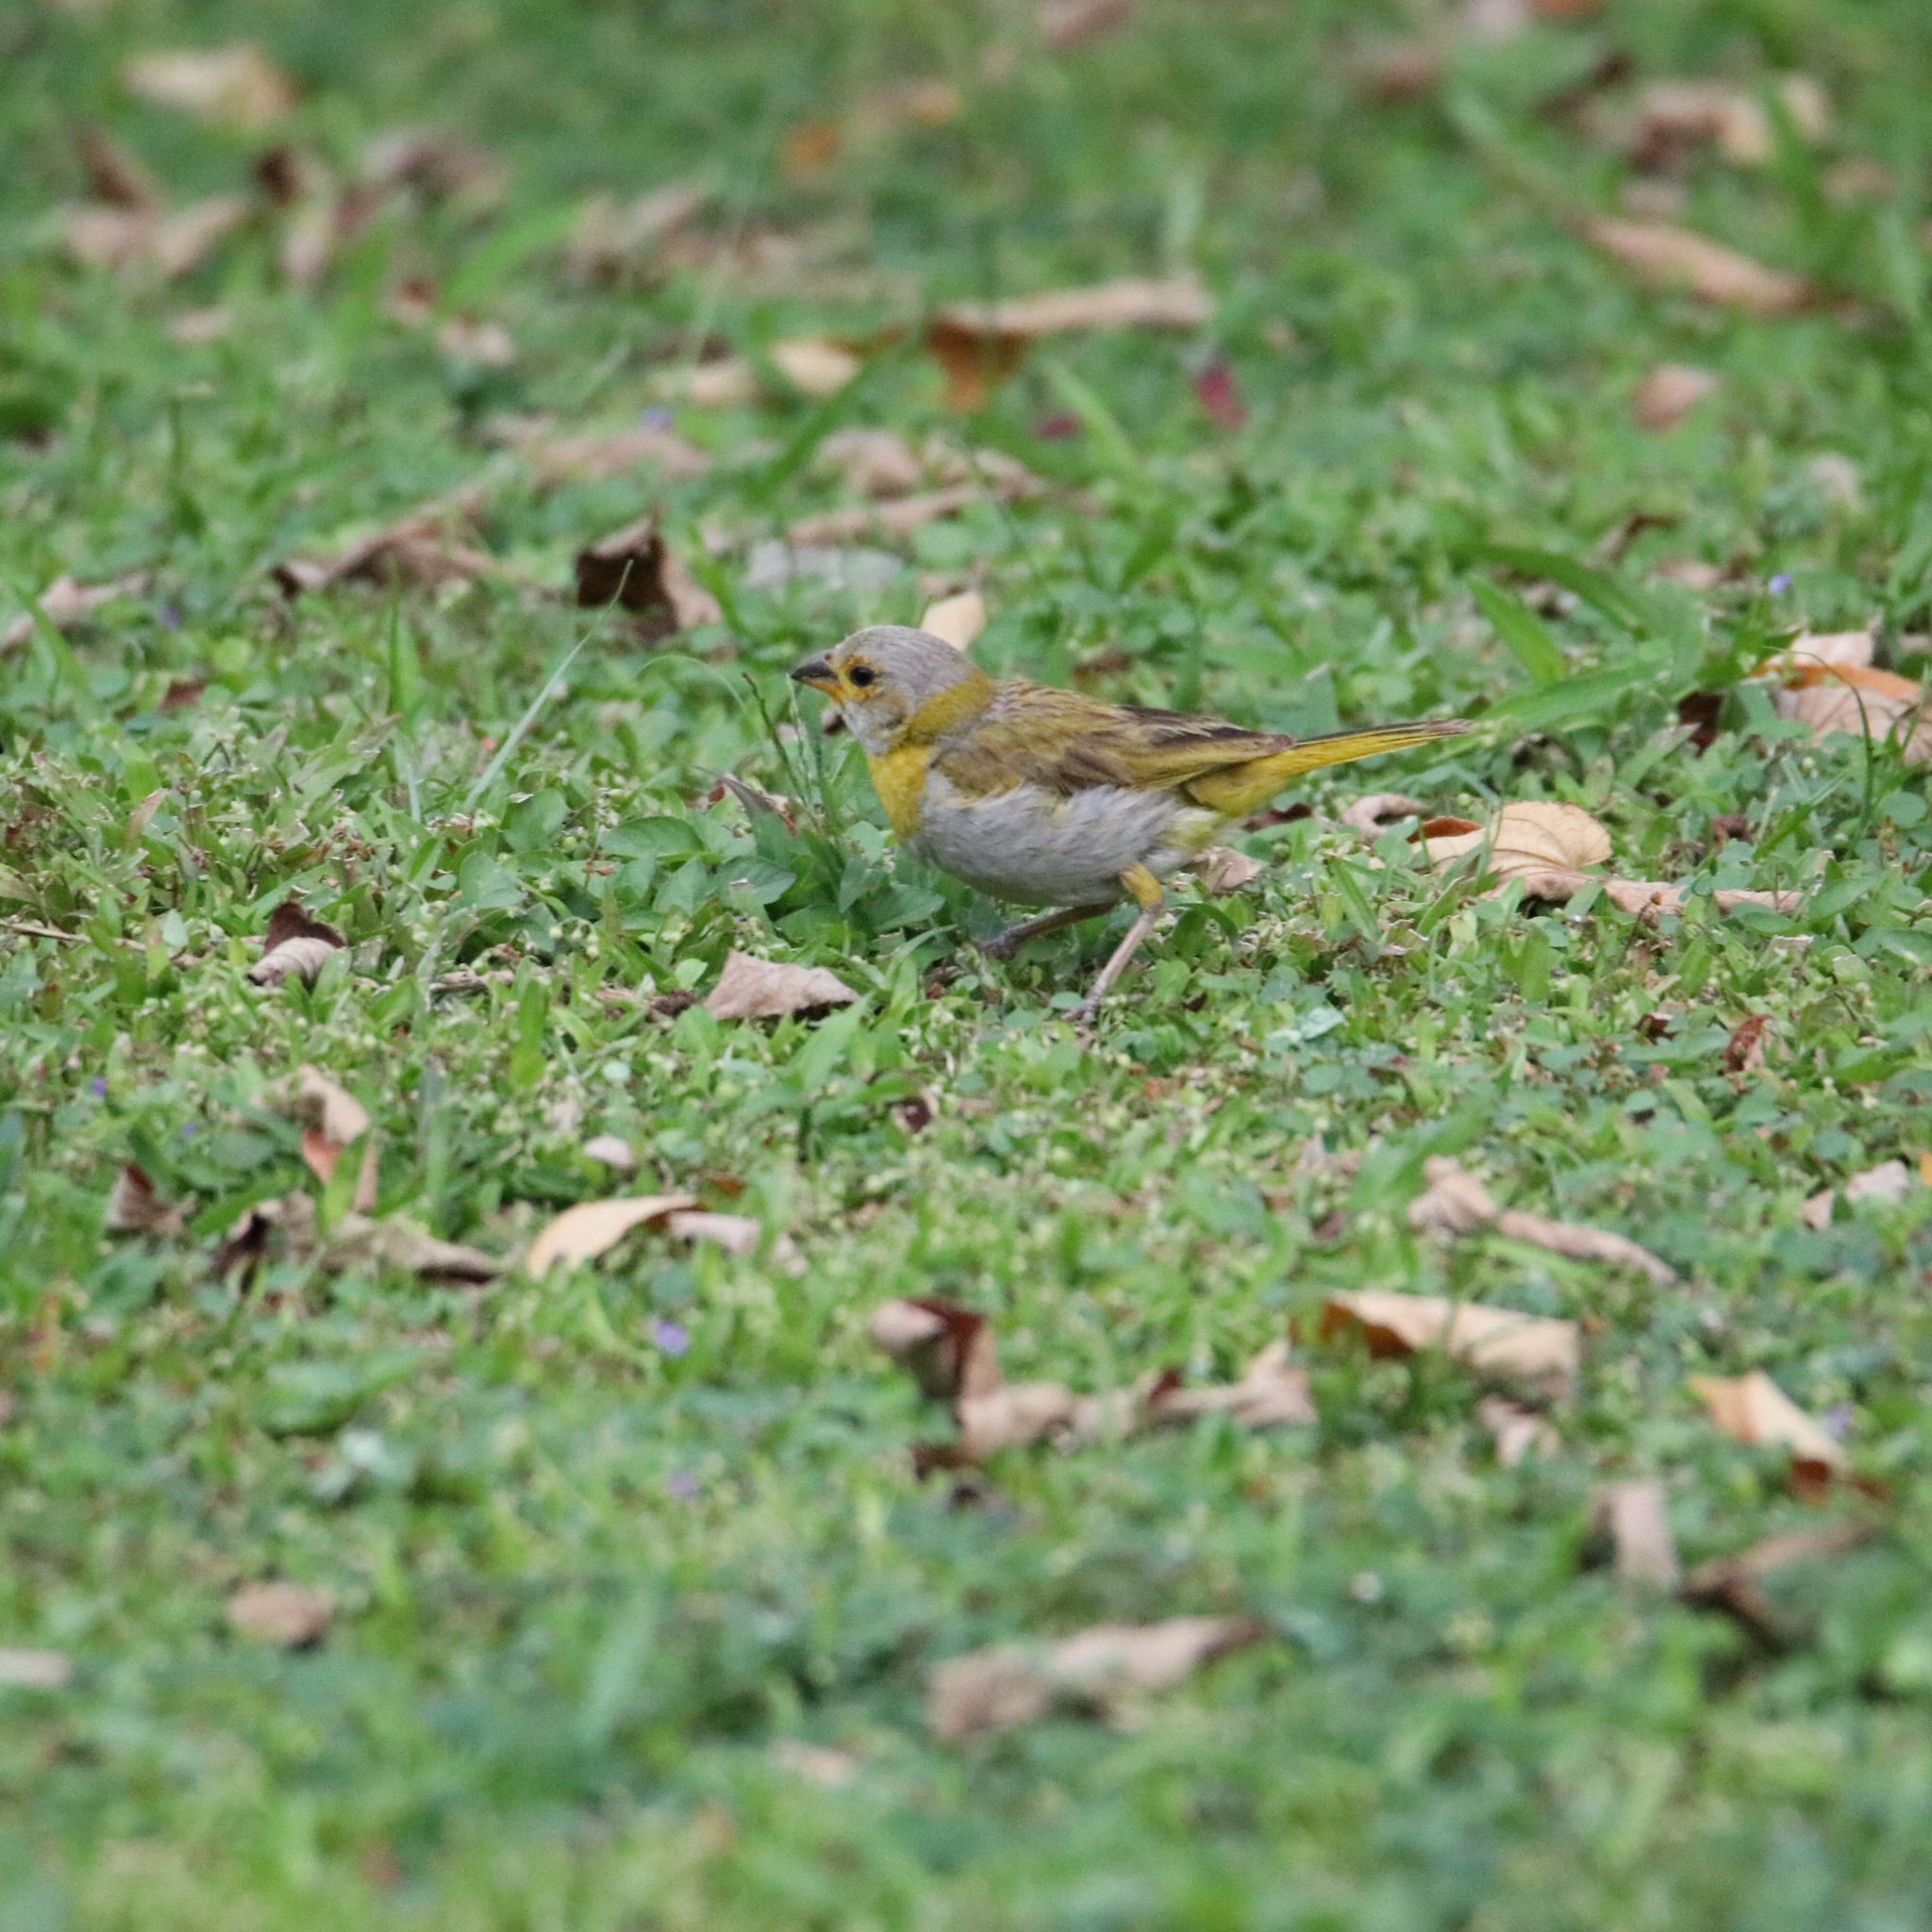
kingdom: Animalia
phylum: Chordata
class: Aves
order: Passeriformes
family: Thraupidae
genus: Sicalis
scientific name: Sicalis flaveola
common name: Saffron finch
